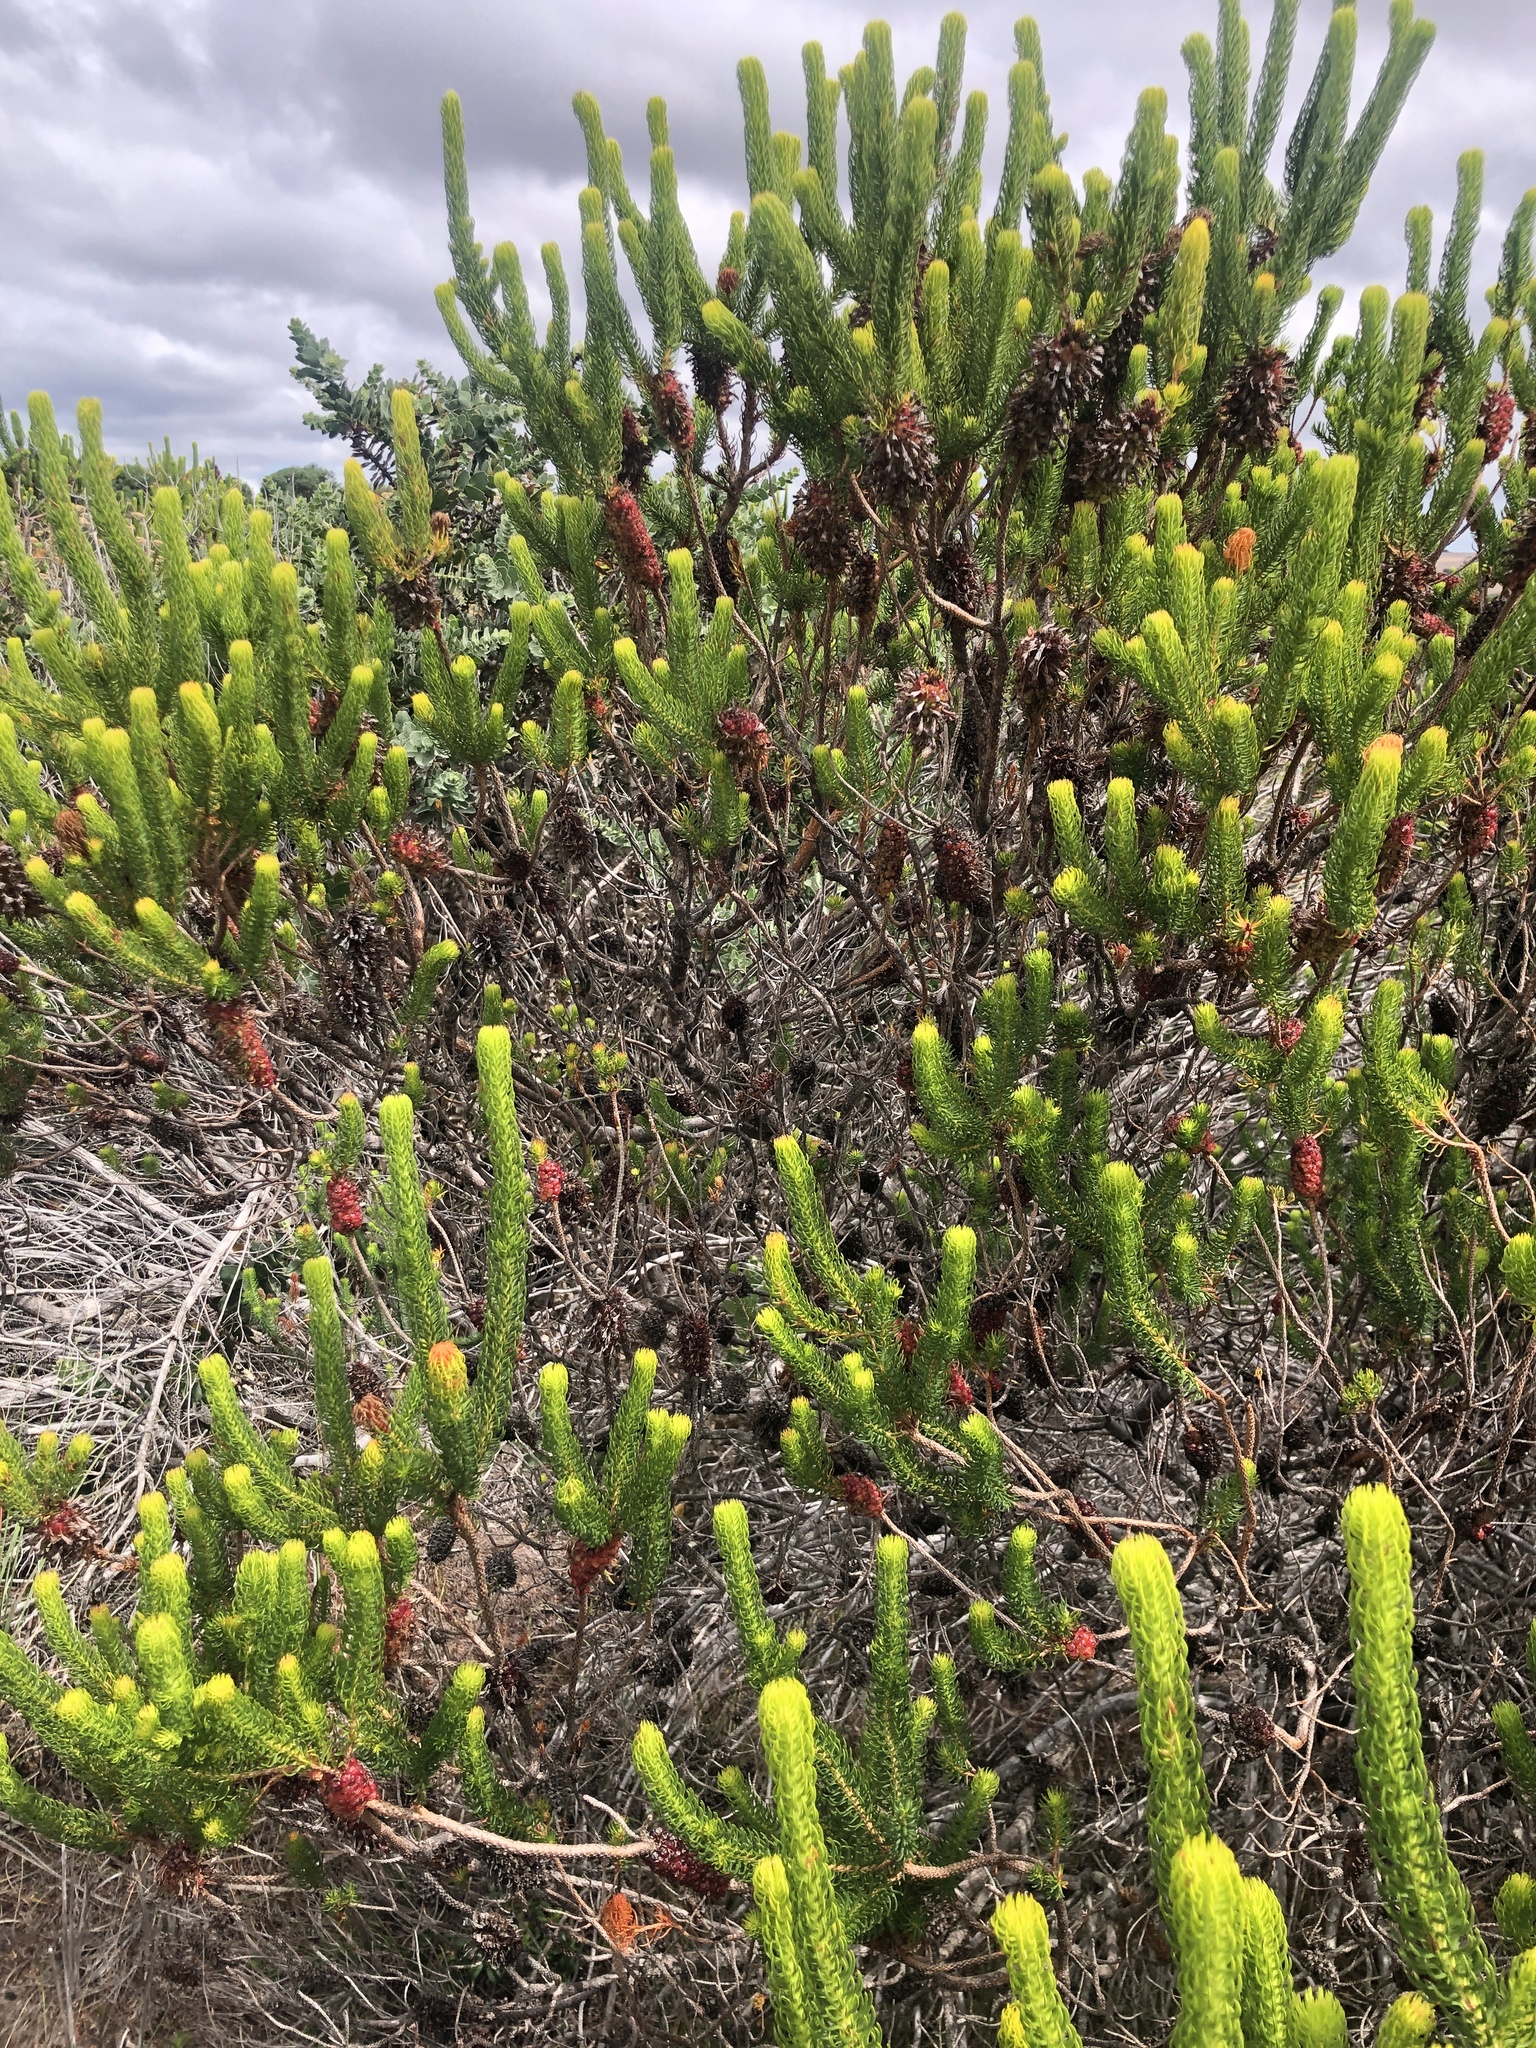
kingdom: Plantae
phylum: Tracheophyta
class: Magnoliopsida
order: Ericales
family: Ericaceae
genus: Erica
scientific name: Erica sessiliflora
